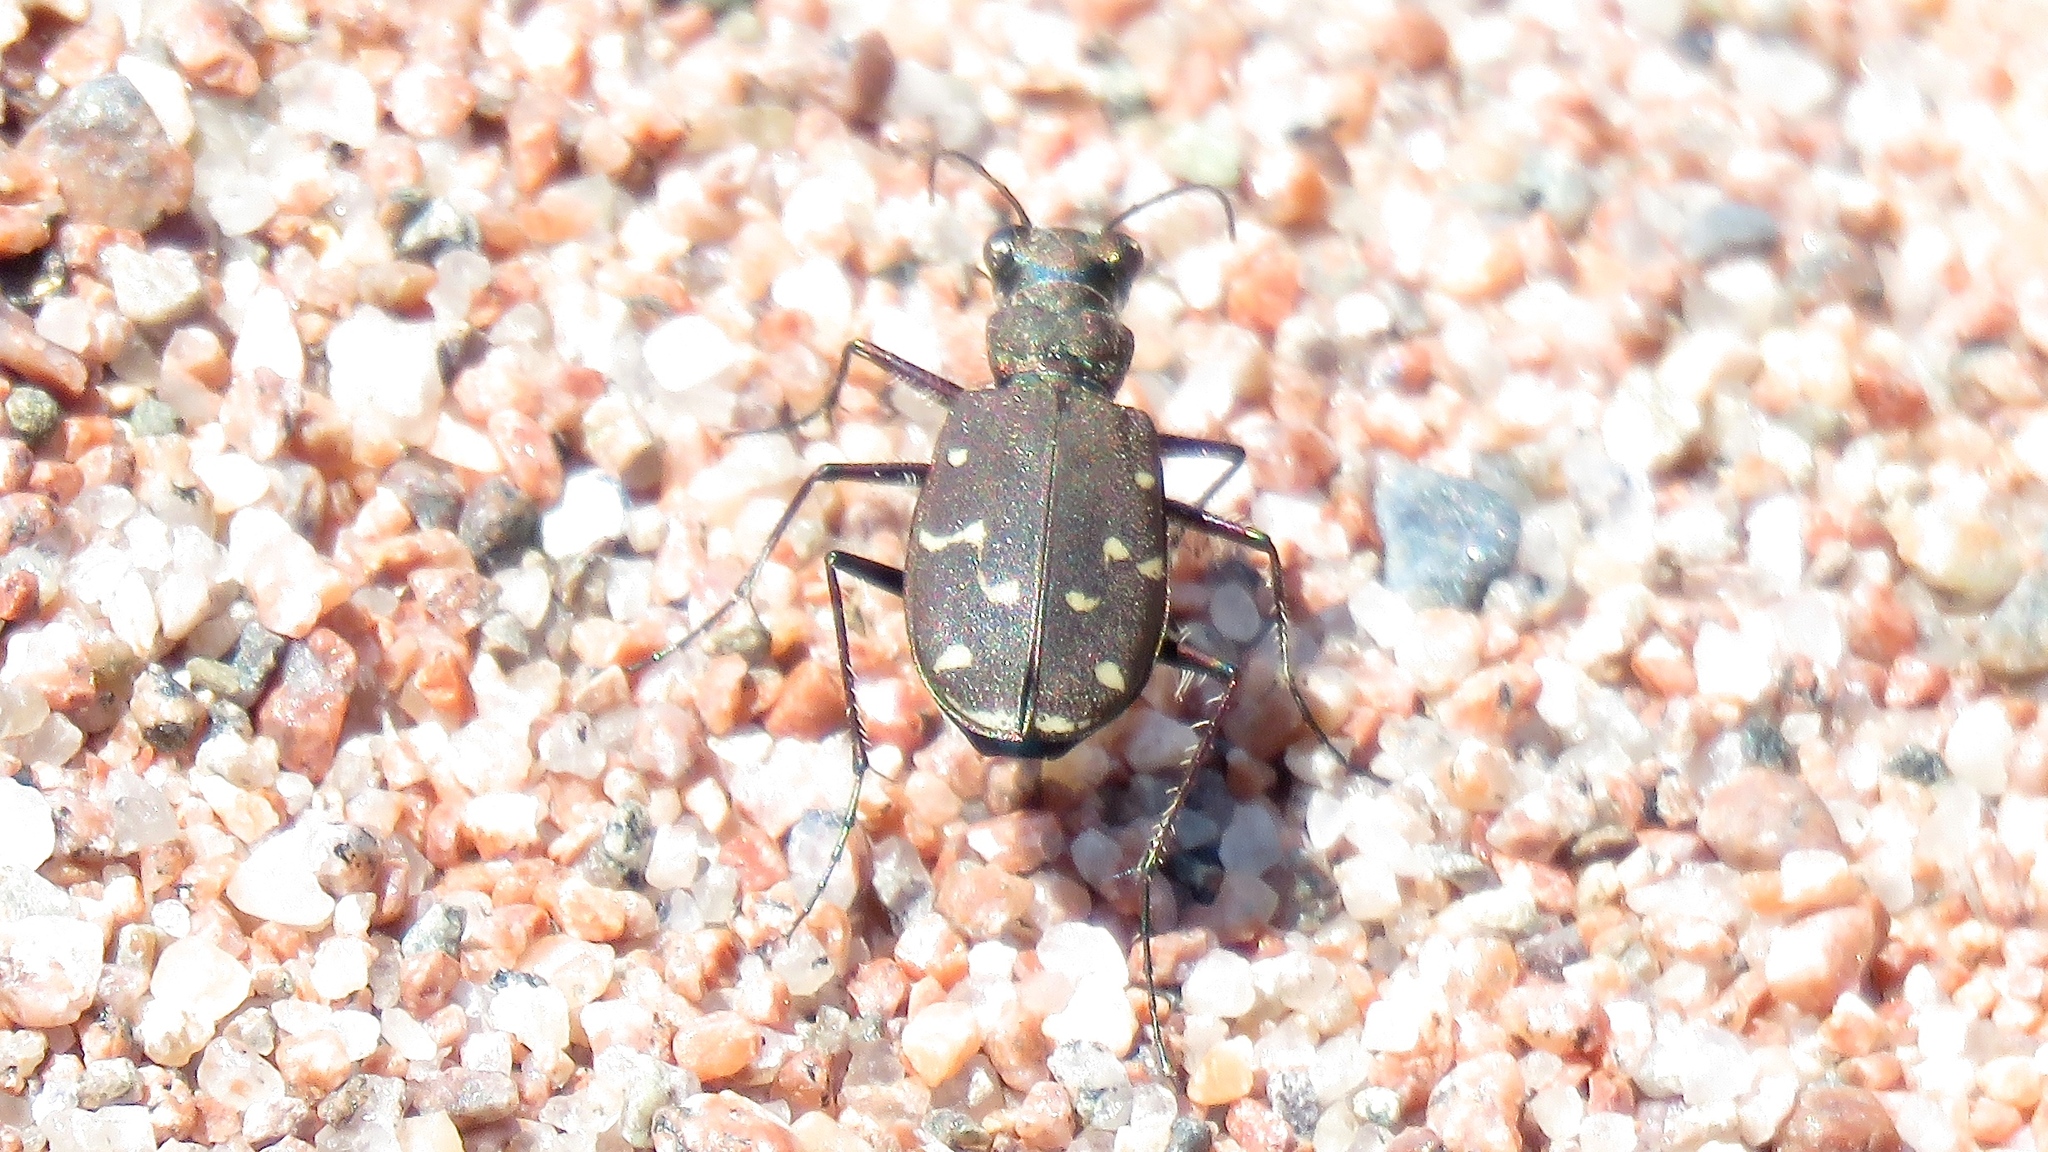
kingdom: Animalia
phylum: Arthropoda
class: Insecta
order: Coleoptera
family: Carabidae
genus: Cicindela
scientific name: Cicindela duodecimguttata
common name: Twelve-spotted tiger beetle
